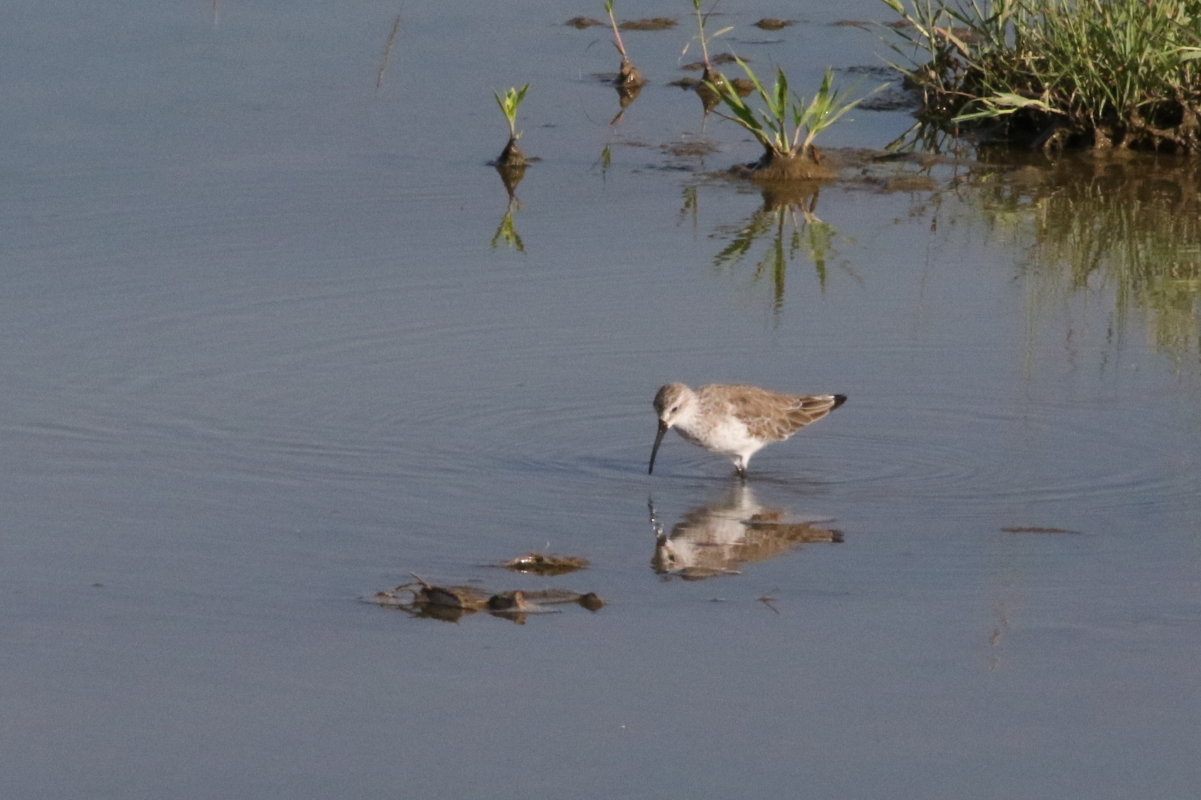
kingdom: Animalia
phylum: Chordata
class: Aves
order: Charadriiformes
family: Scolopacidae
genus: Calidris
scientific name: Calidris ferruginea
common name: Curlew sandpiper
